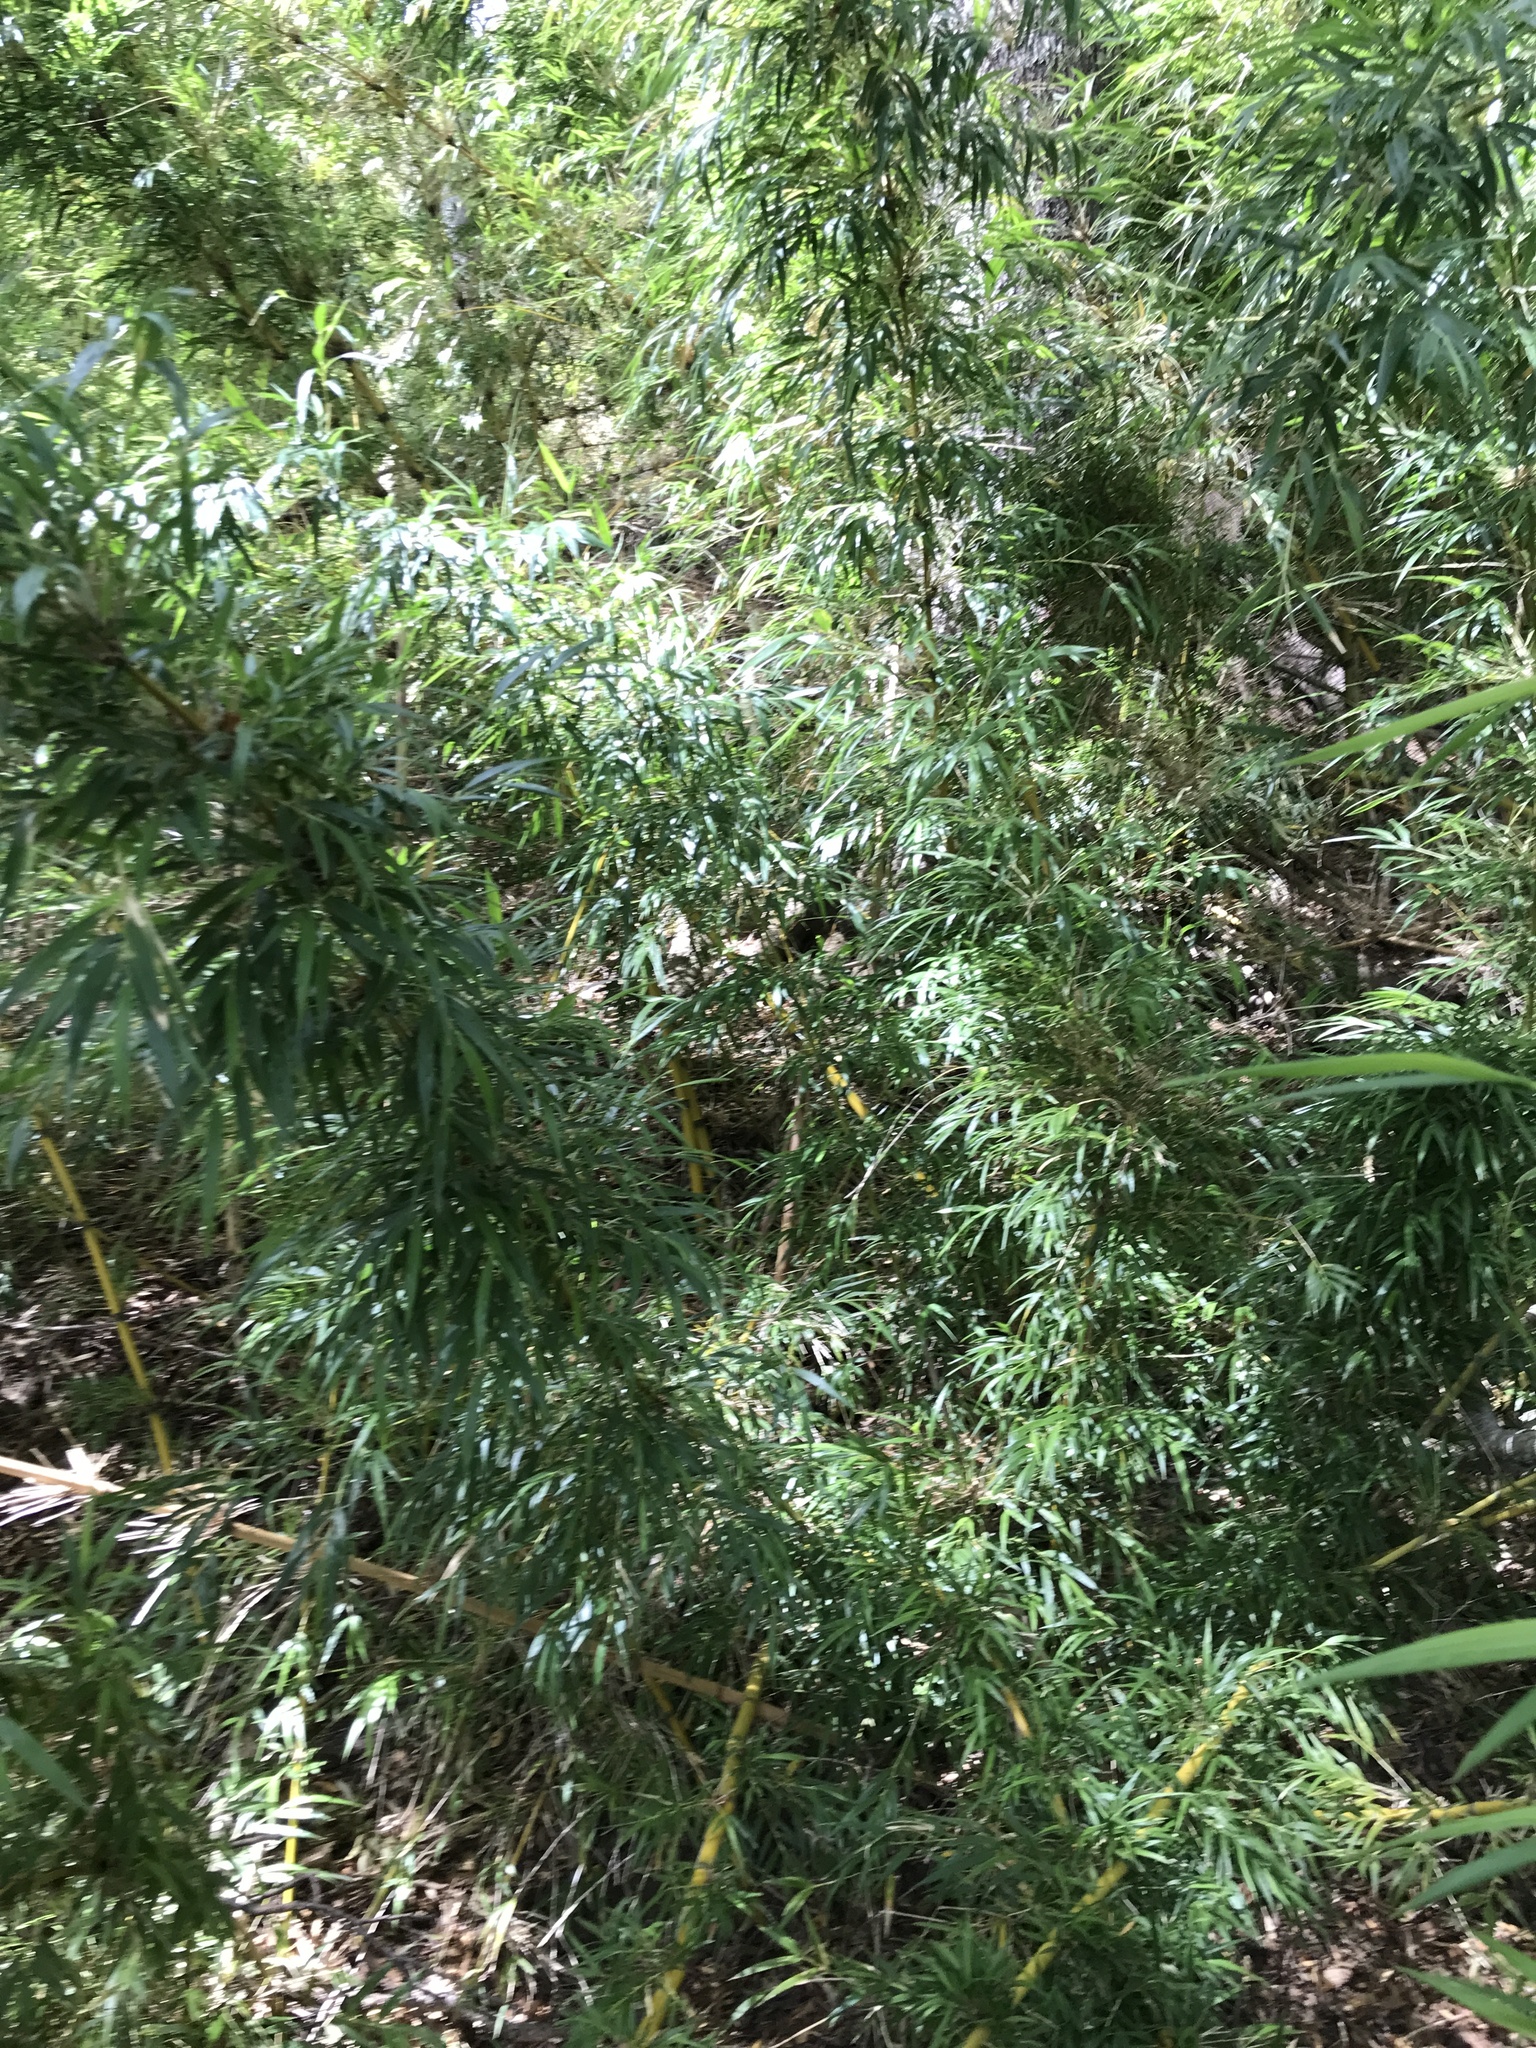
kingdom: Plantae
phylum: Tracheophyta
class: Liliopsida
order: Poales
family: Poaceae
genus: Chusquea
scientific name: Chusquea culeou
